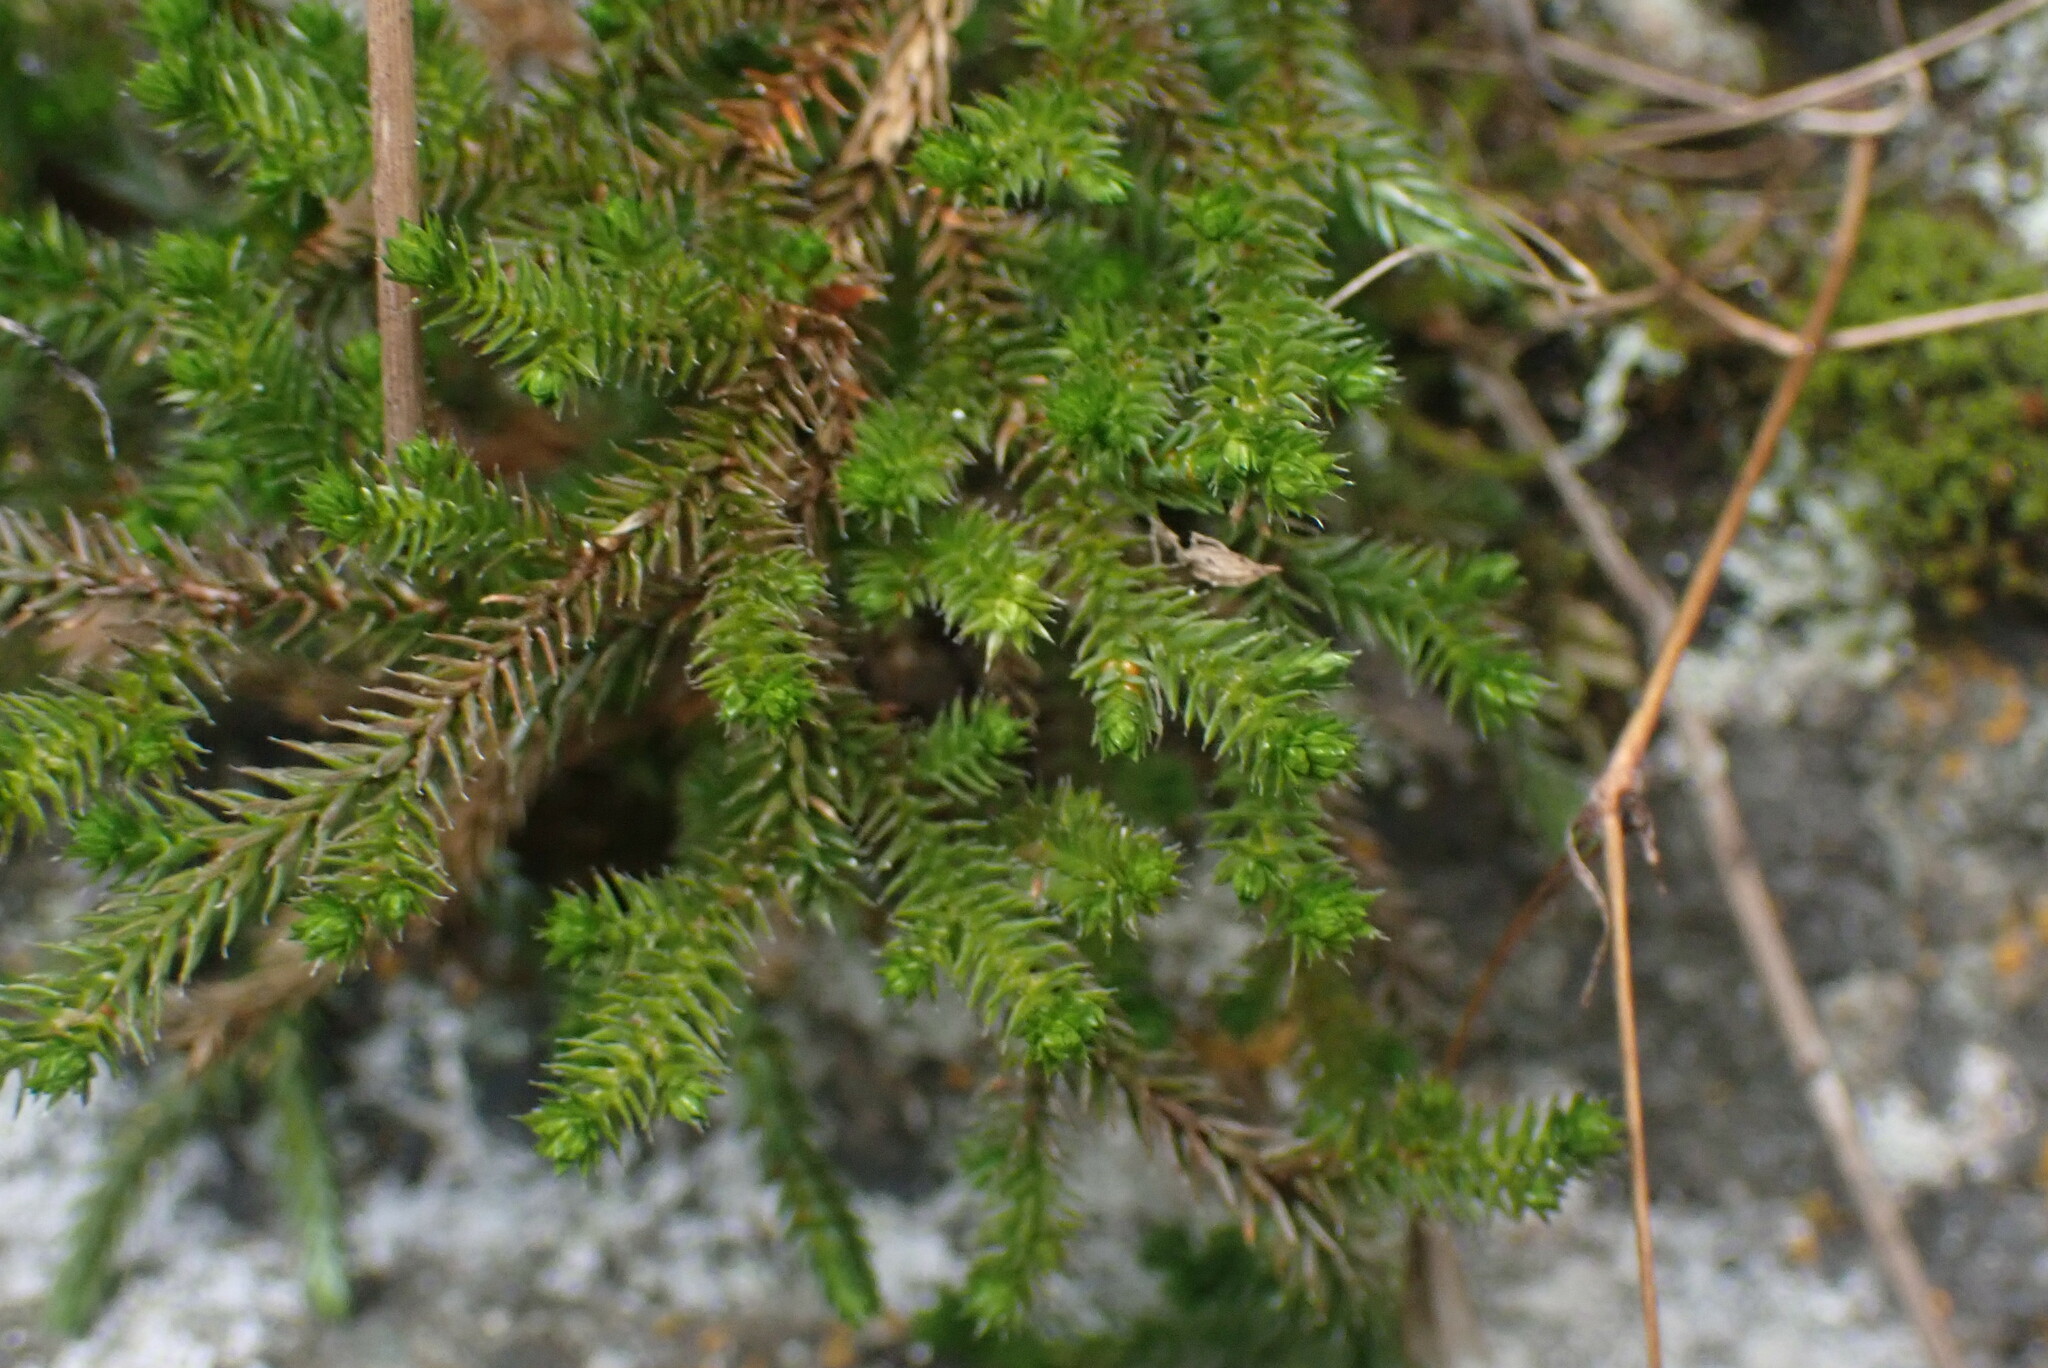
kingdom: Plantae
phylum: Tracheophyta
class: Lycopodiopsida
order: Selaginellales
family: Selaginellaceae
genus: Selaginella
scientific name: Selaginella wallacei
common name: Wallace's selaginella
